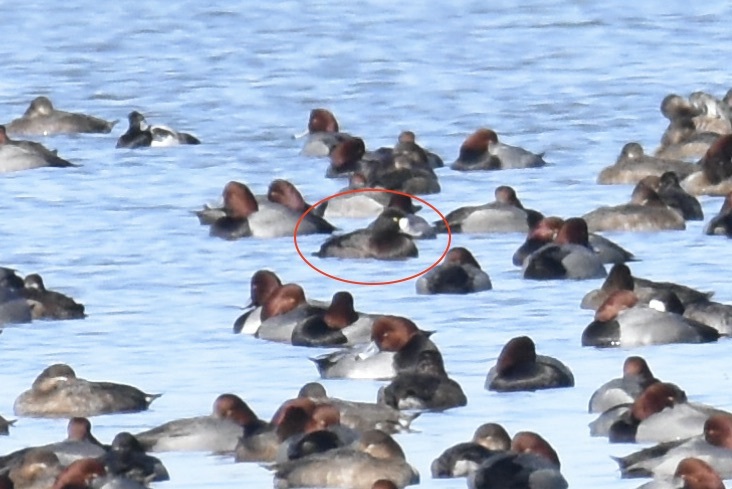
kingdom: Animalia
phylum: Chordata
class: Aves
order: Anseriformes
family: Anatidae
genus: Aythya
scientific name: Aythya marila
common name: Greater scaup
